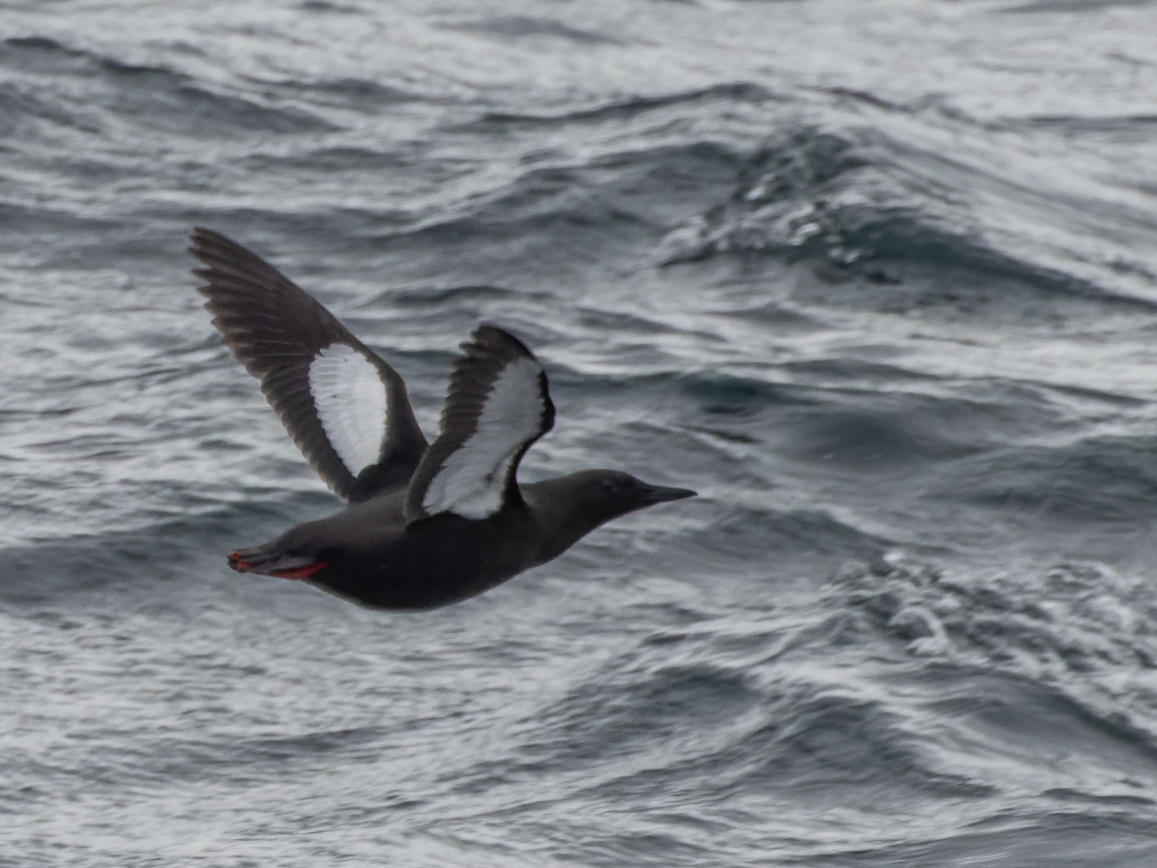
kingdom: Animalia
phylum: Chordata
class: Aves
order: Charadriiformes
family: Alcidae
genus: Cepphus
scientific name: Cepphus grylle
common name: Black guillemot
